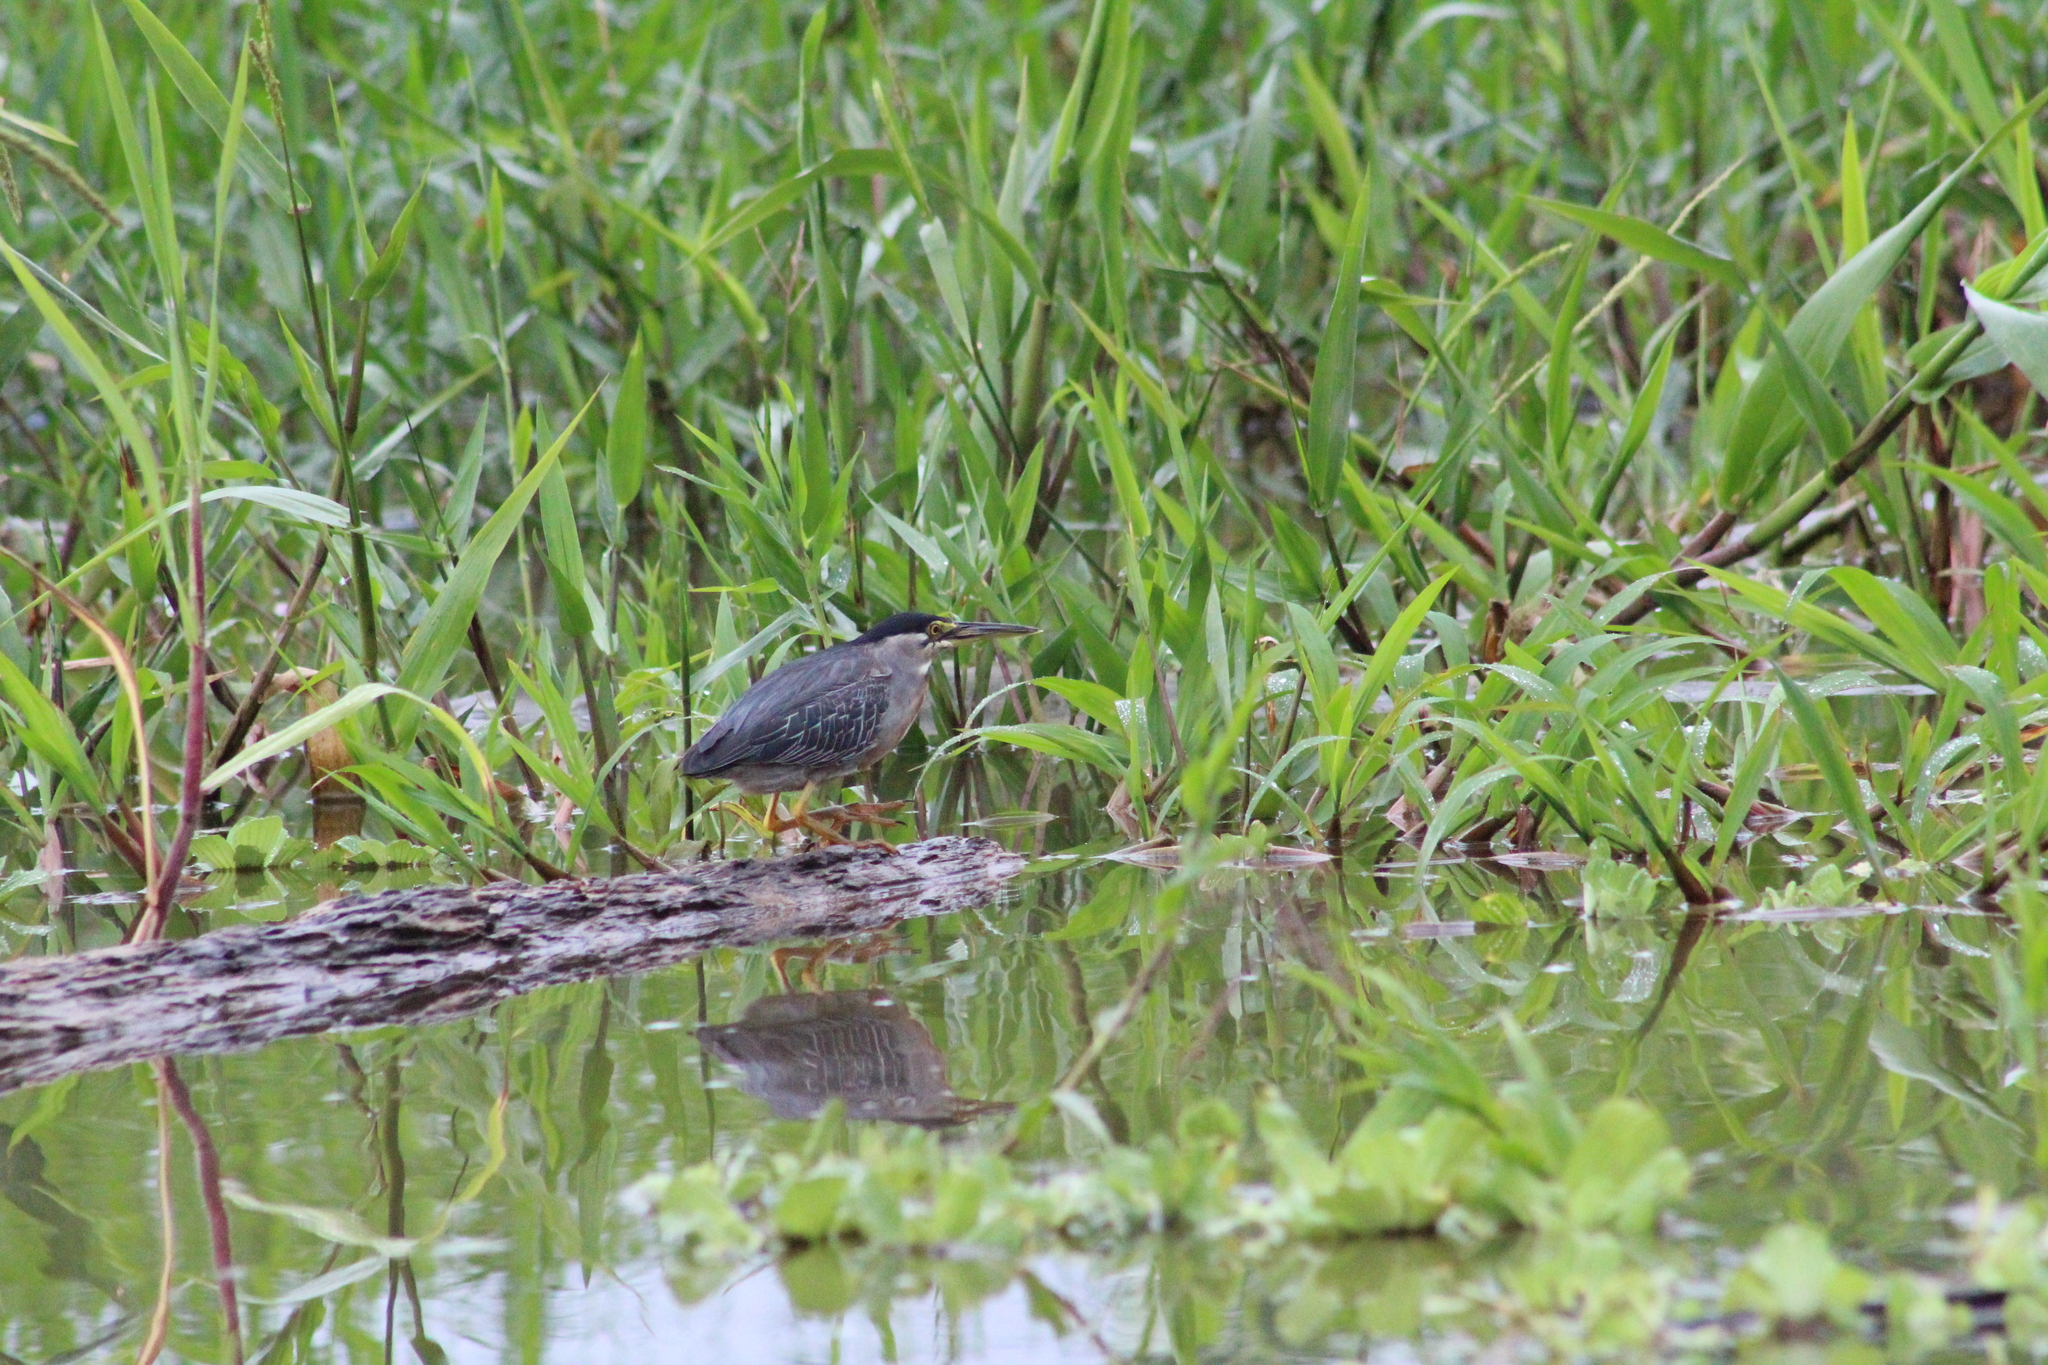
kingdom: Animalia
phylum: Chordata
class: Aves
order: Pelecaniformes
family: Ardeidae
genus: Butorides
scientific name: Butorides striata
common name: Striated heron
